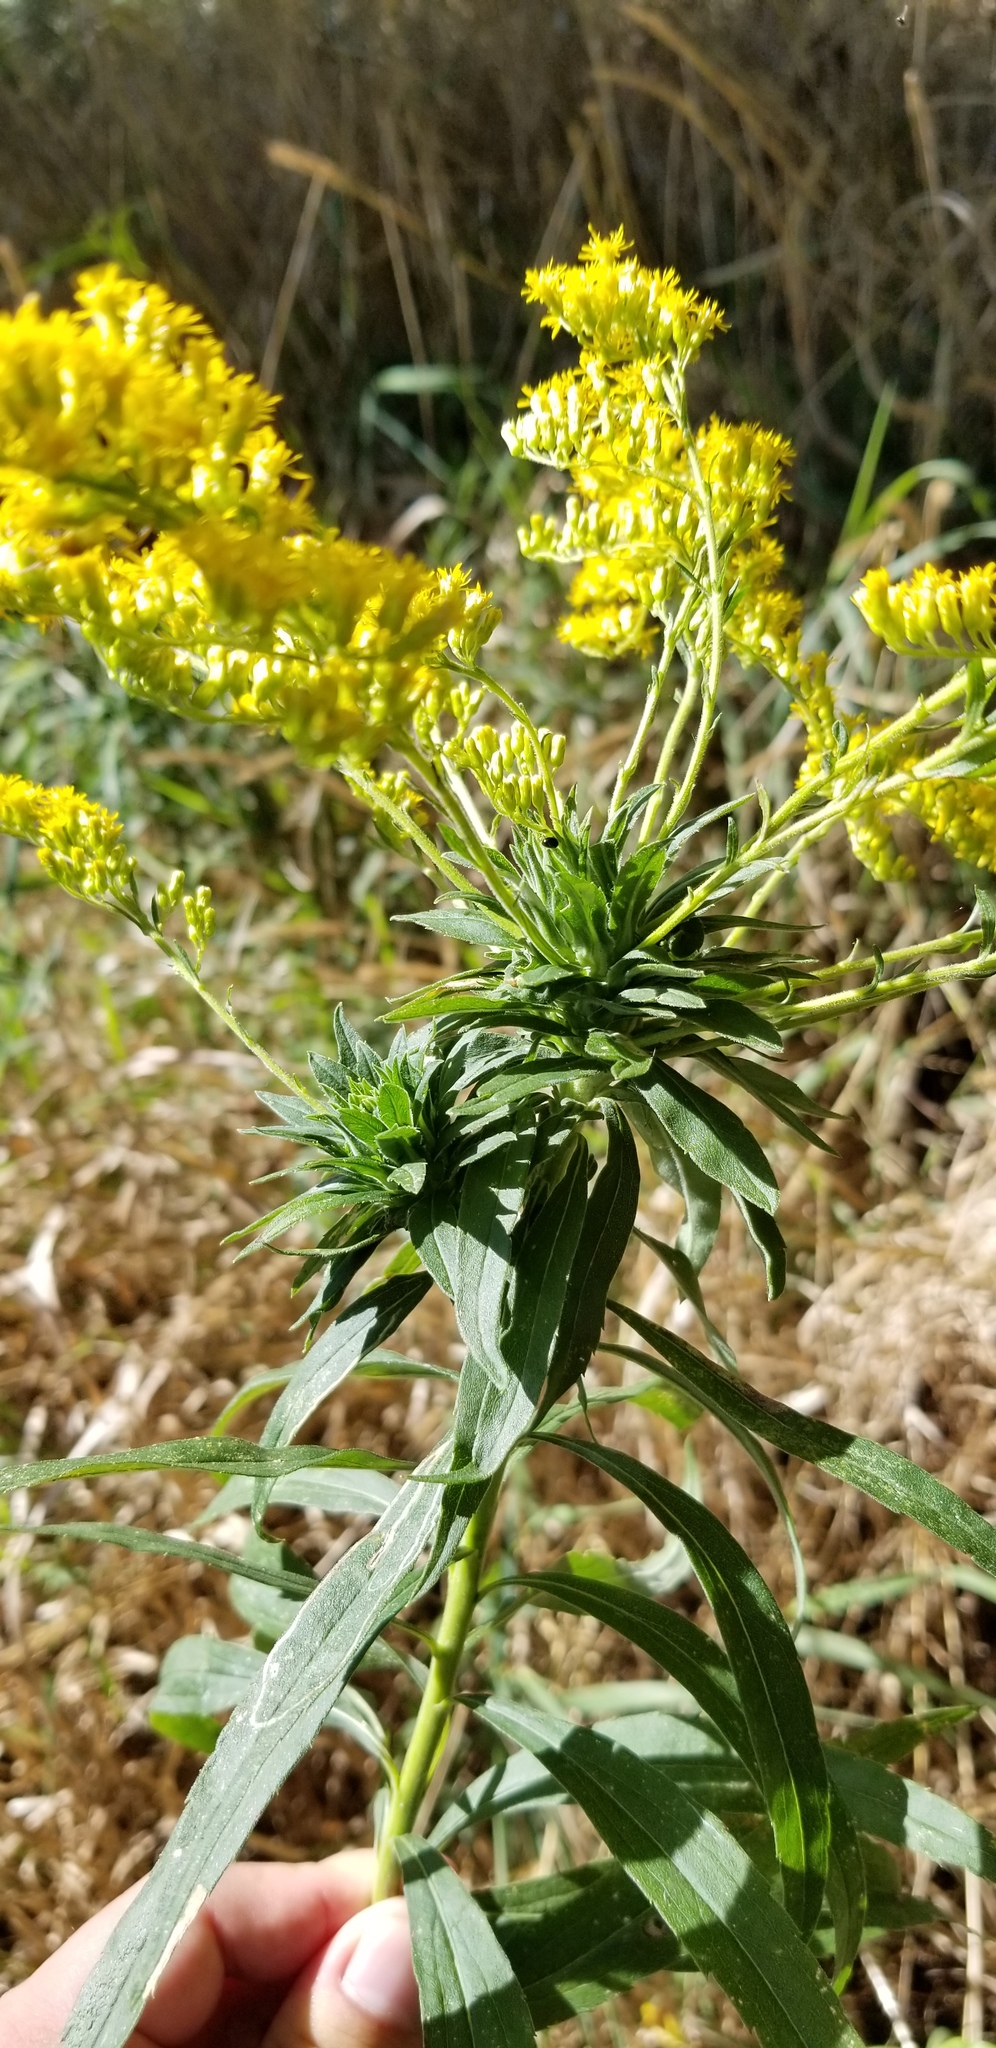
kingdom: Animalia
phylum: Arthropoda
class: Insecta
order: Diptera
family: Tephritidae
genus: Procecidochares
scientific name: Procecidochares atra
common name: Goldenrod brussels sprout gall fly
